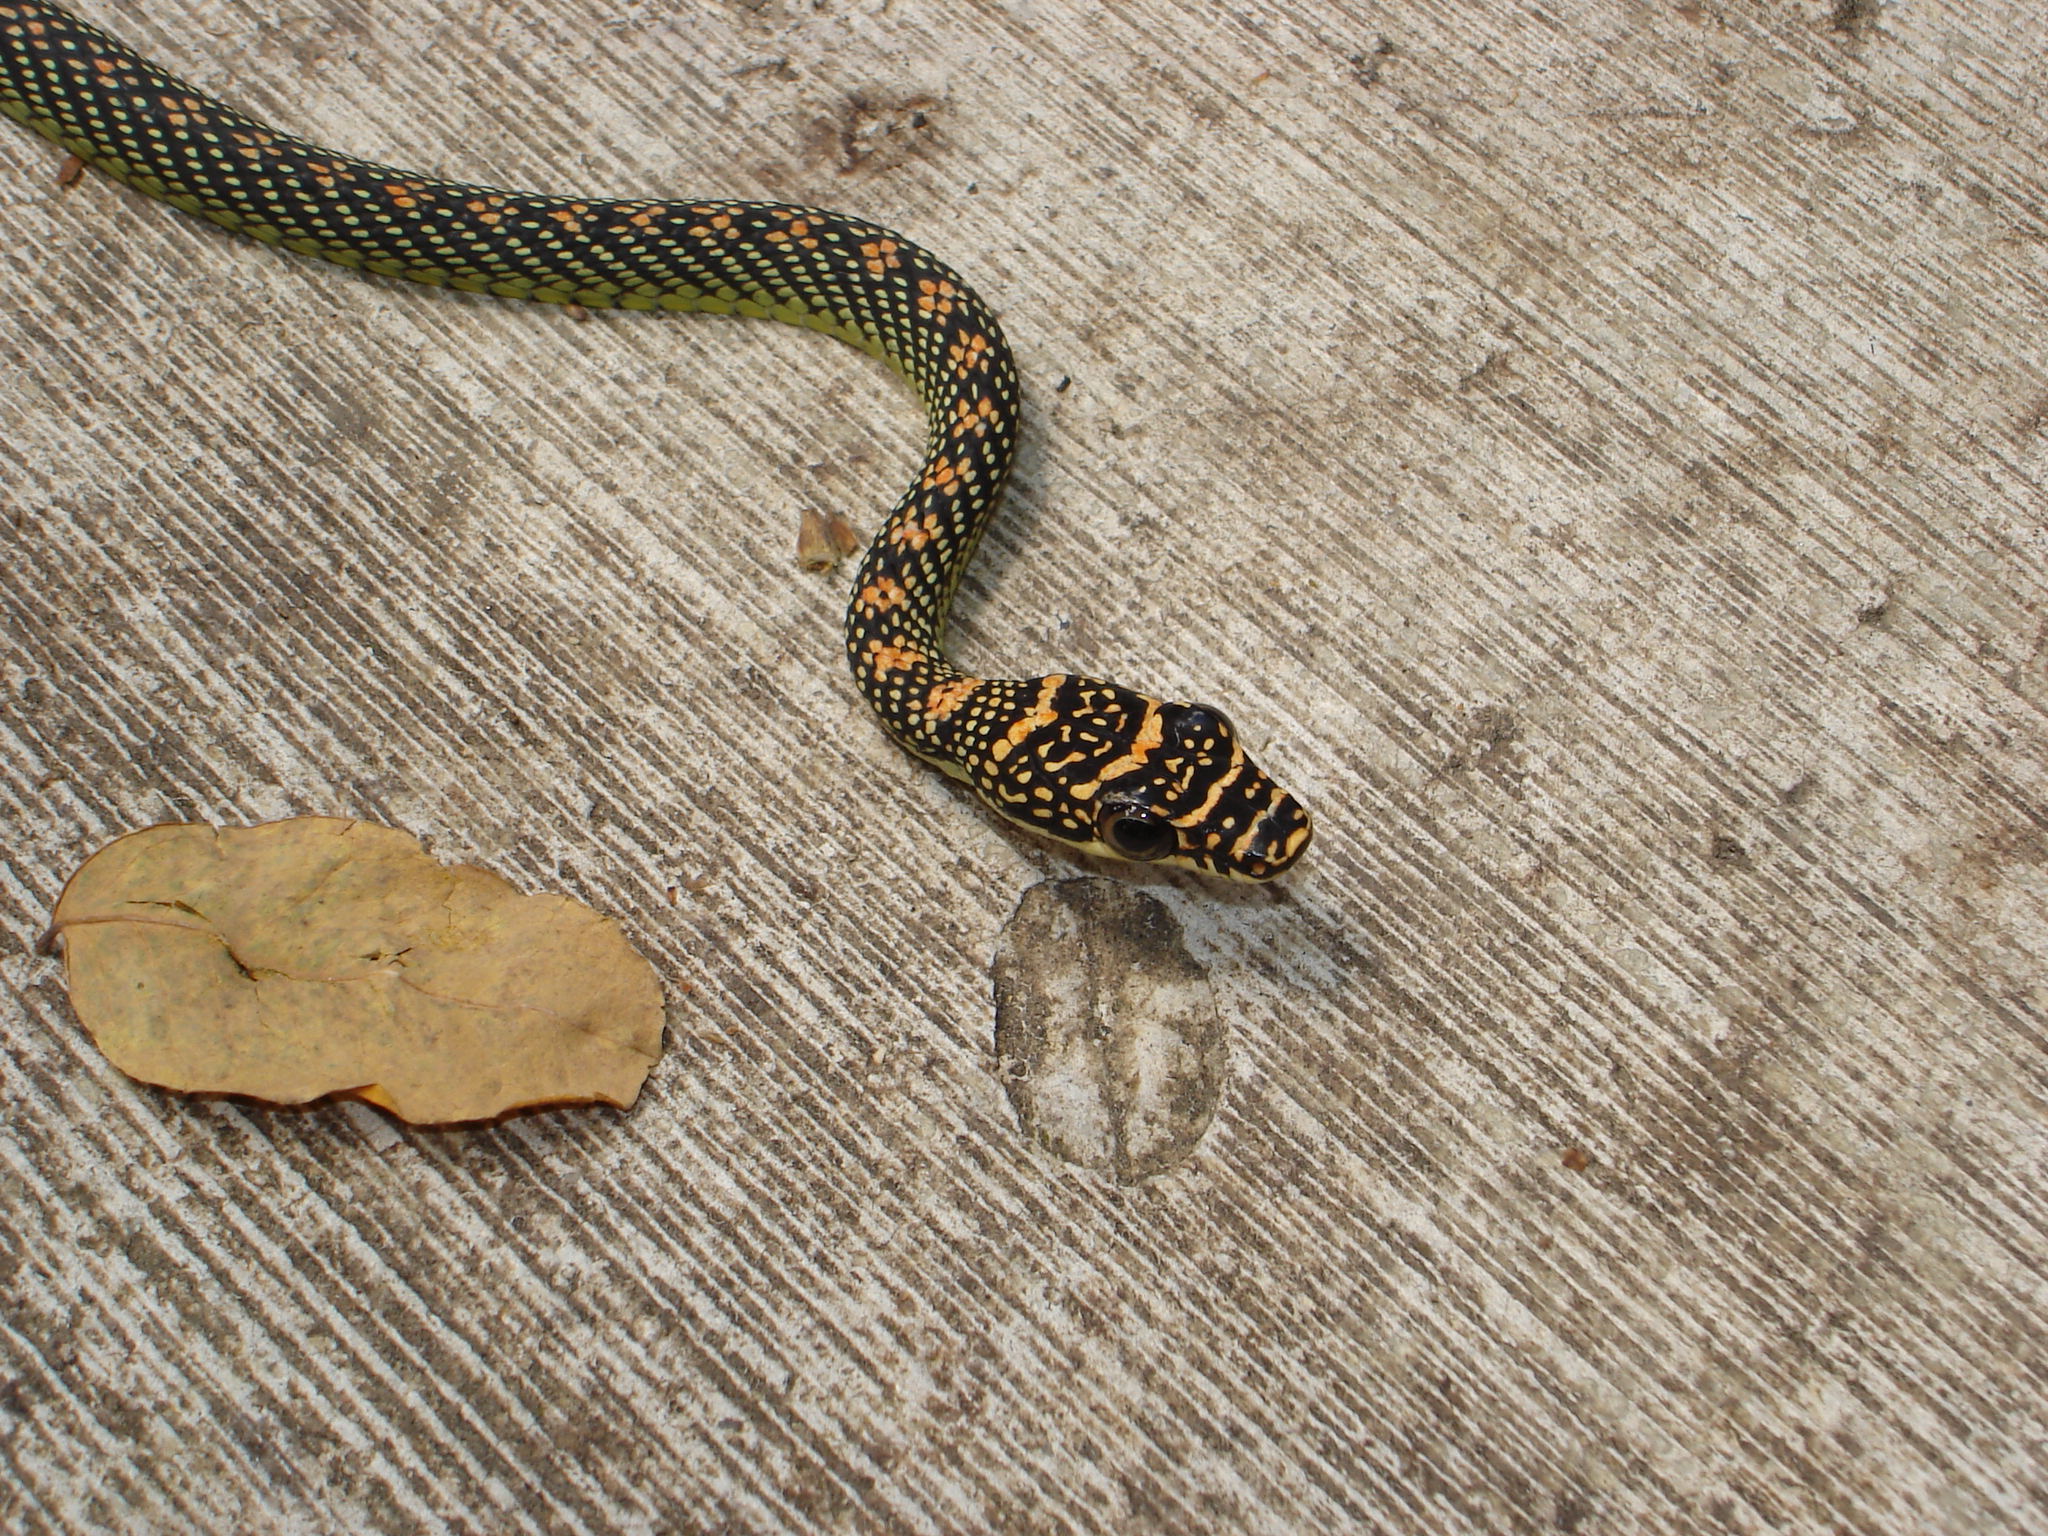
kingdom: Animalia
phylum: Chordata
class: Squamata
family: Colubridae
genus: Chrysopelea
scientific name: Chrysopelea paradisi
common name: Paradise tree snake
